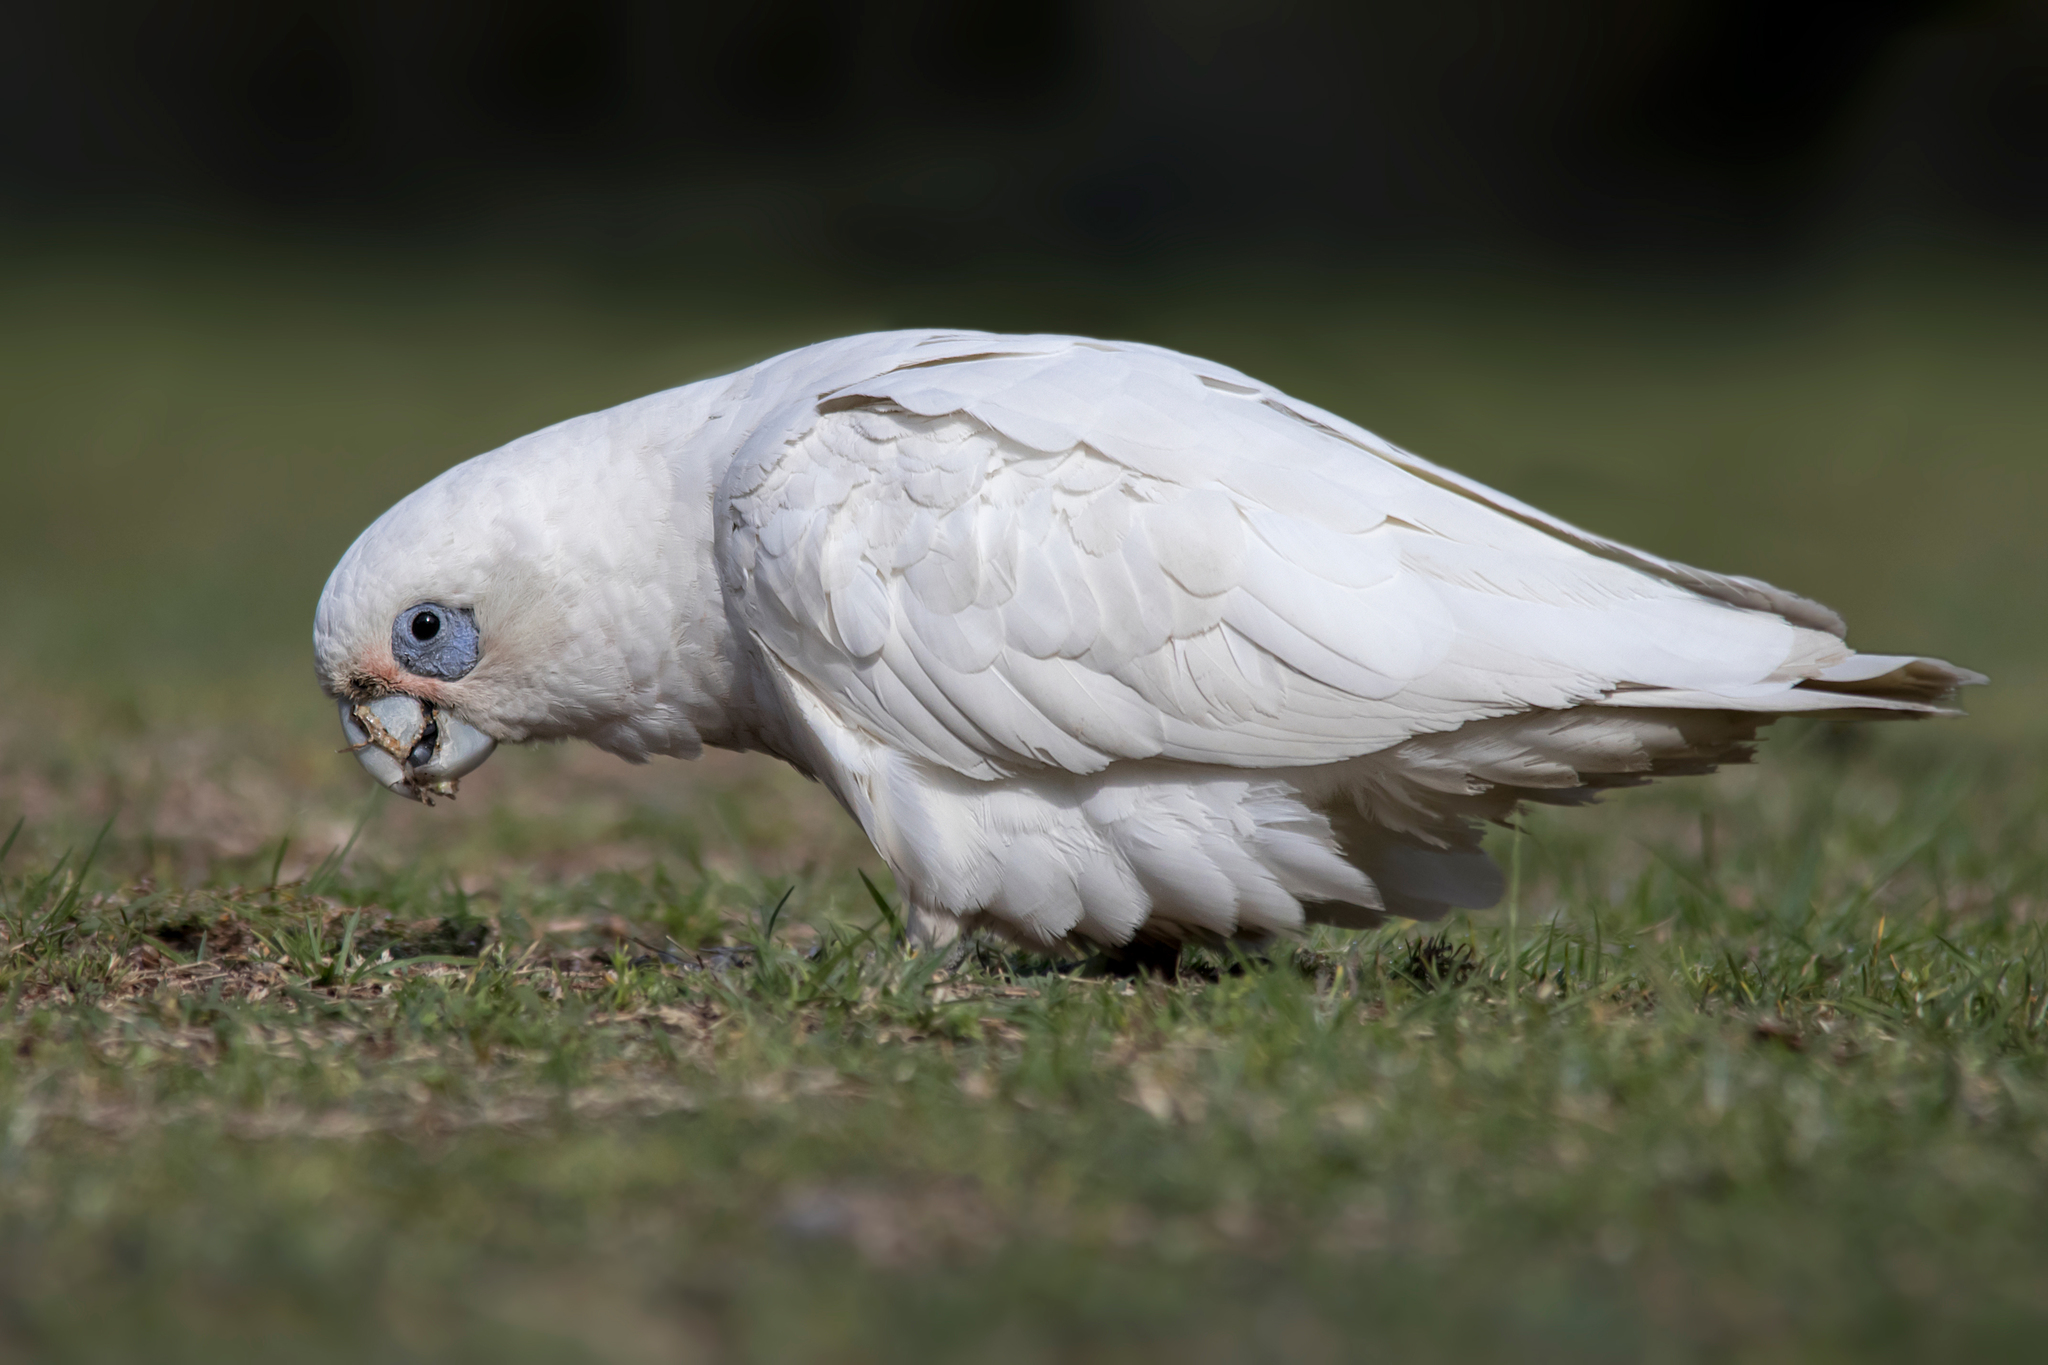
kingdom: Animalia
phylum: Chordata
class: Aves
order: Psittaciformes
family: Psittacidae
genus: Cacatua
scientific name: Cacatua sanguinea
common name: Little corella
